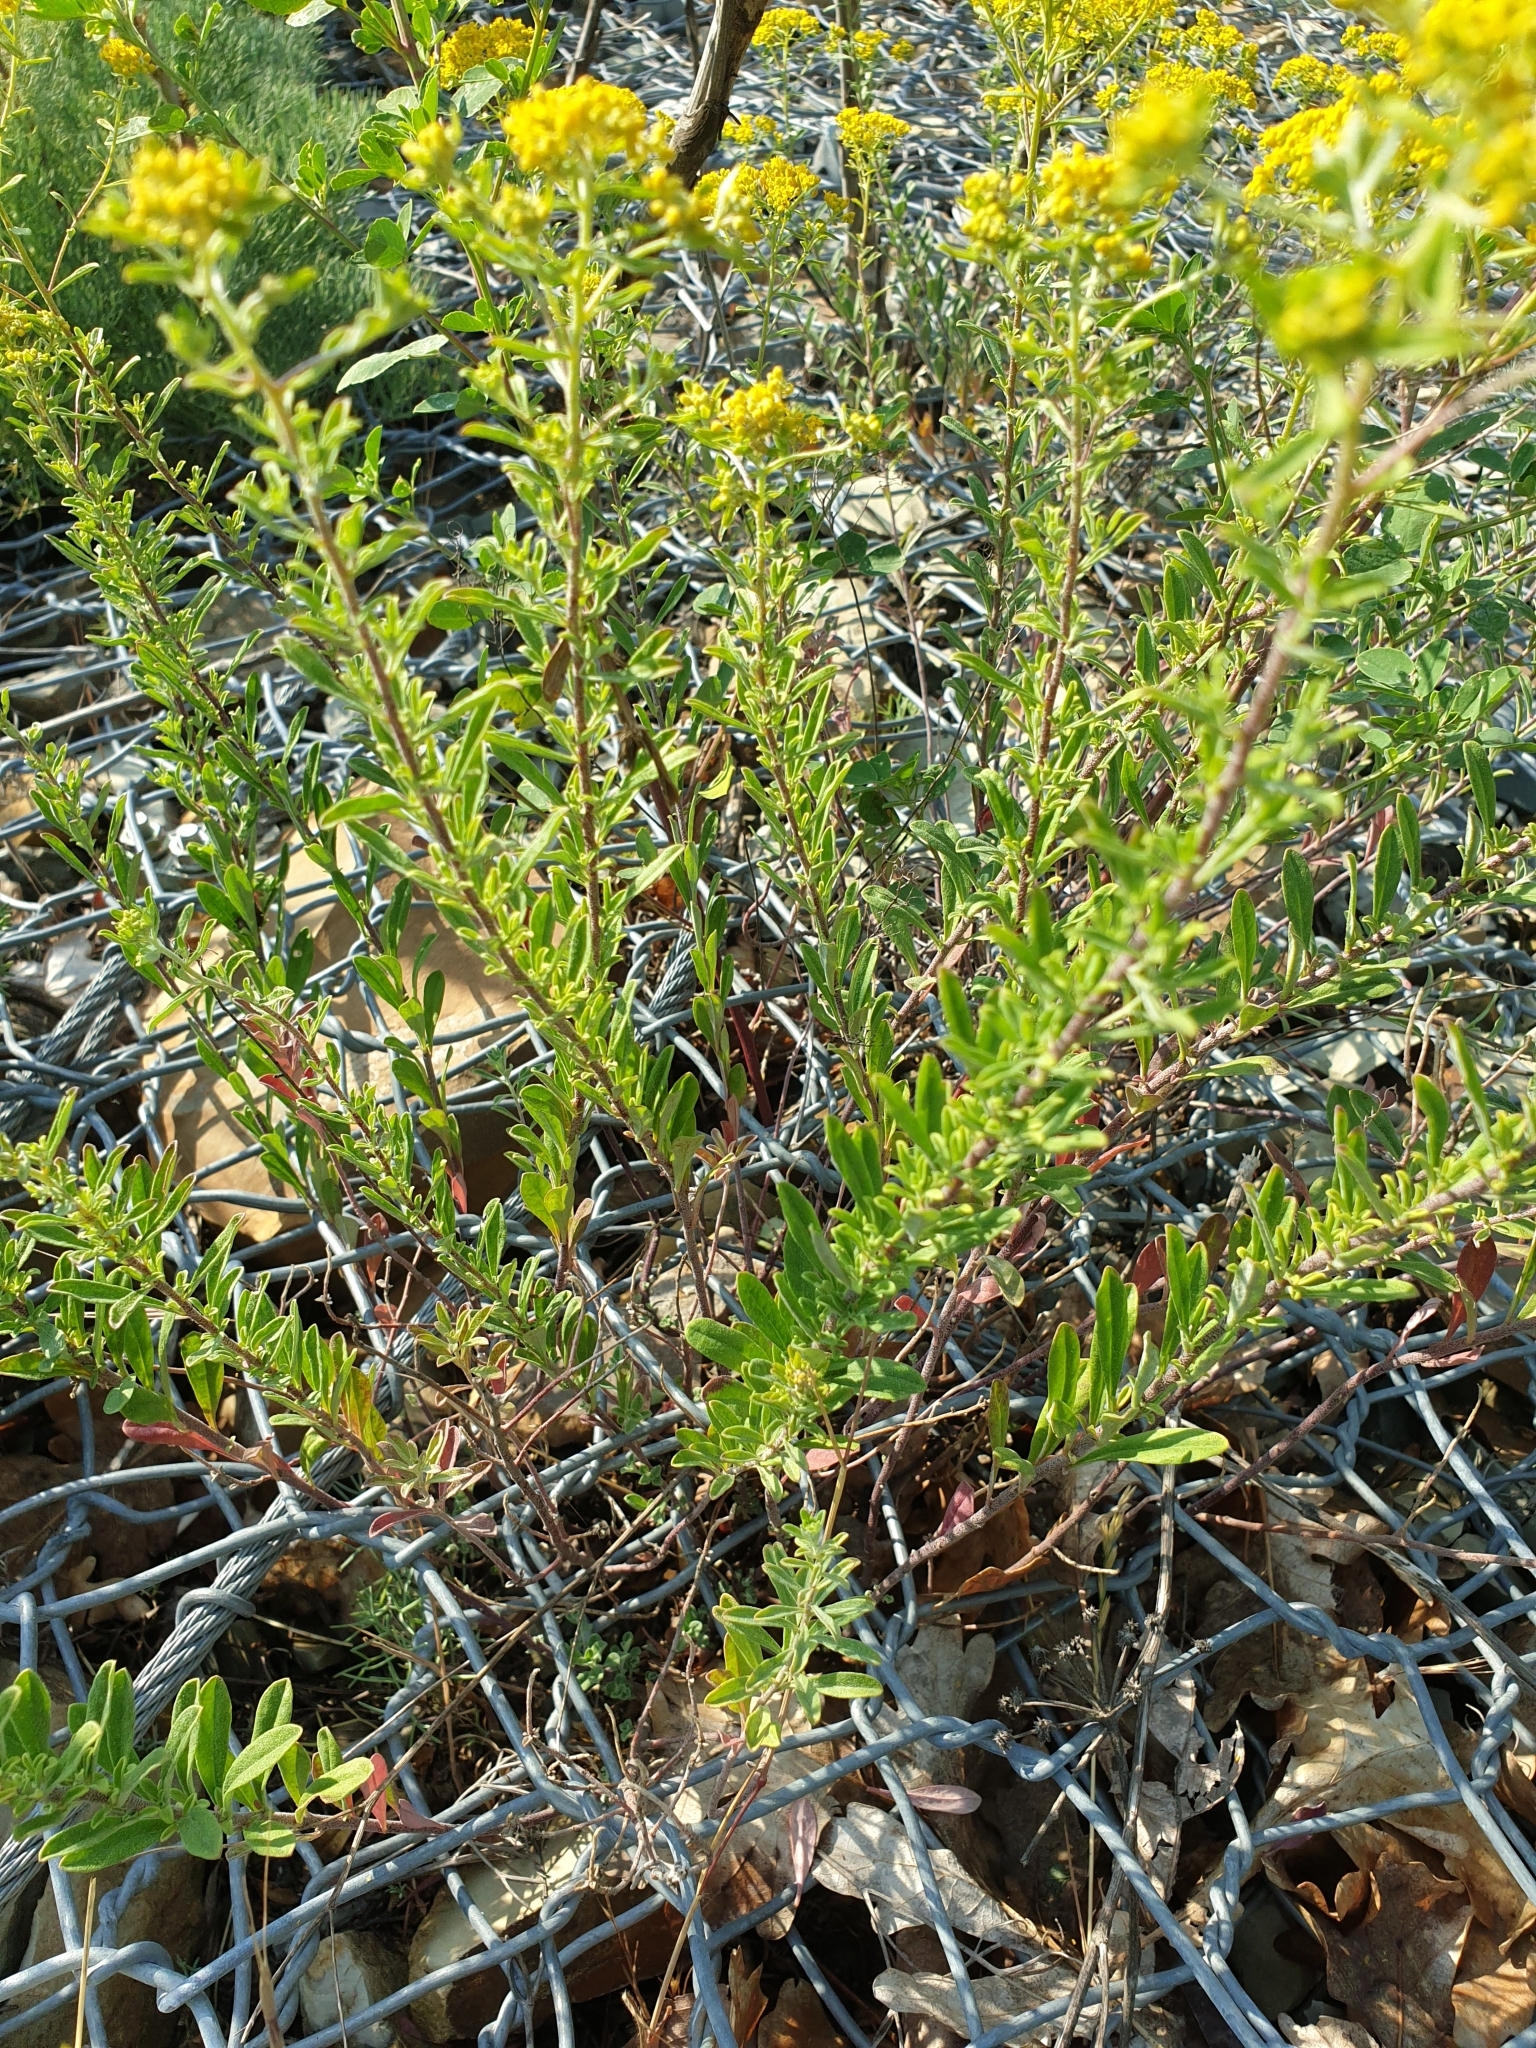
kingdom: Plantae
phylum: Tracheophyta
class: Magnoliopsida
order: Brassicales
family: Brassicaceae
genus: Odontarrhena
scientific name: Odontarrhena muralis
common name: Rock alyssum
